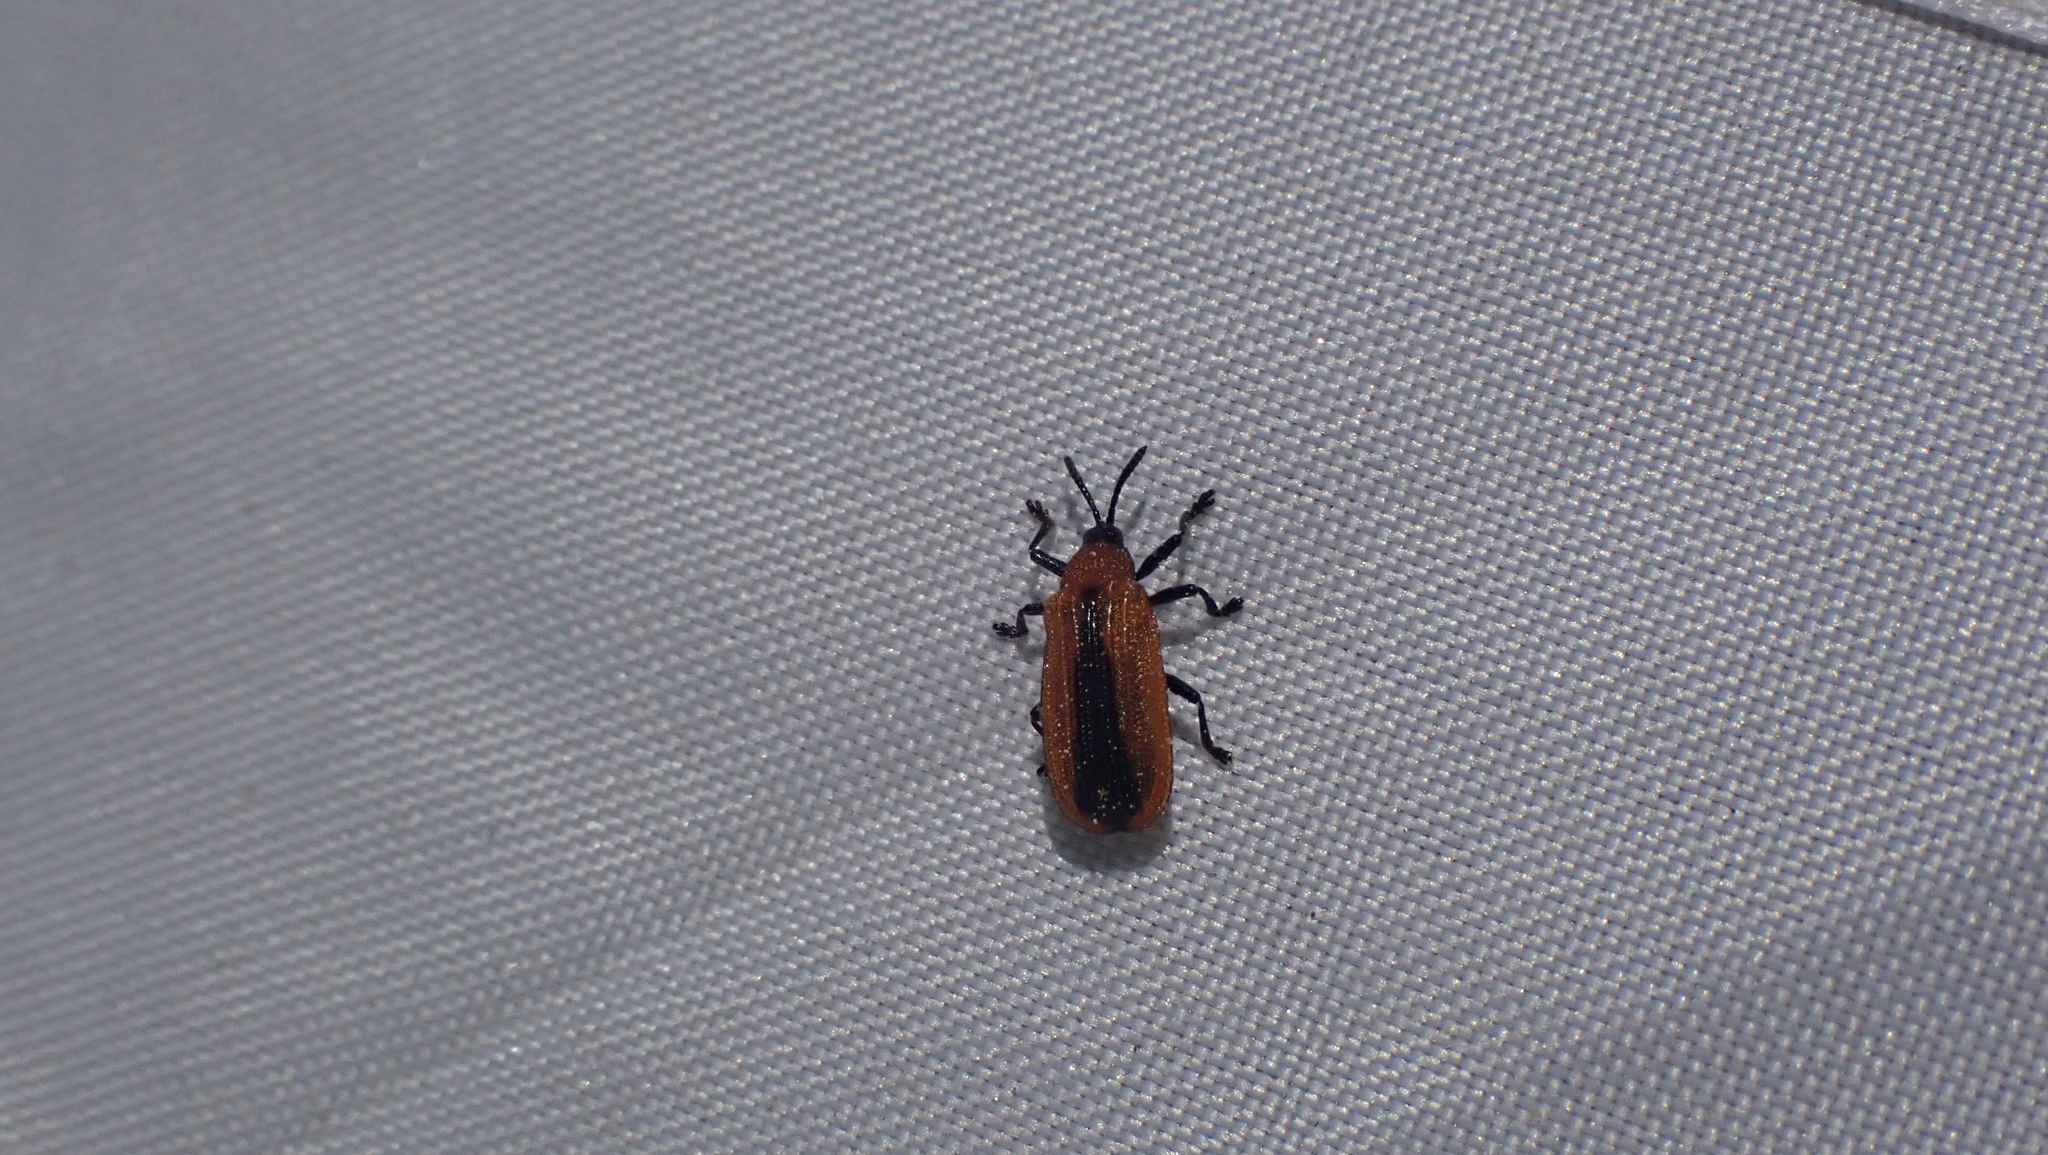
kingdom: Animalia
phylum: Arthropoda
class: Insecta
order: Coleoptera
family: Chrysomelidae
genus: Odontota
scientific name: Odontota dorsalis
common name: Locust leaf-miner beetle
